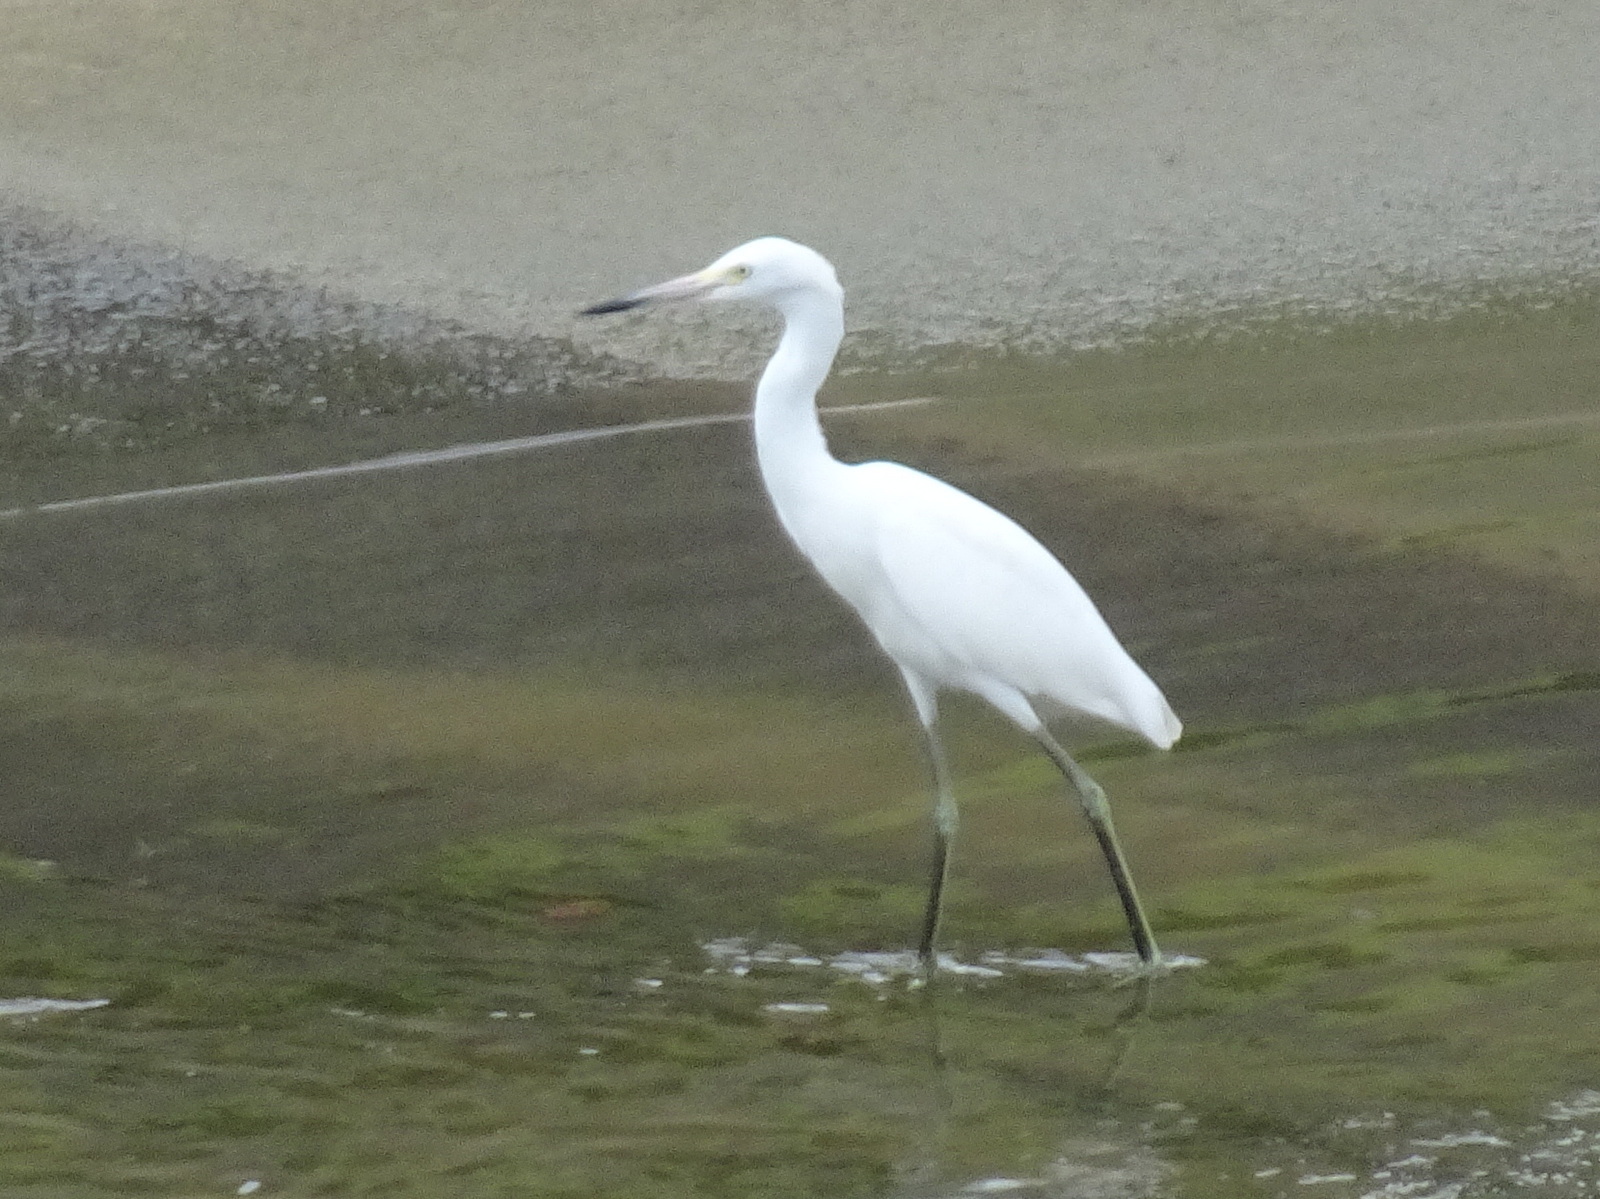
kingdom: Animalia
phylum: Chordata
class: Aves
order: Pelecaniformes
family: Ardeidae
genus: Egretta
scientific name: Egretta caerulea
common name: Little blue heron
